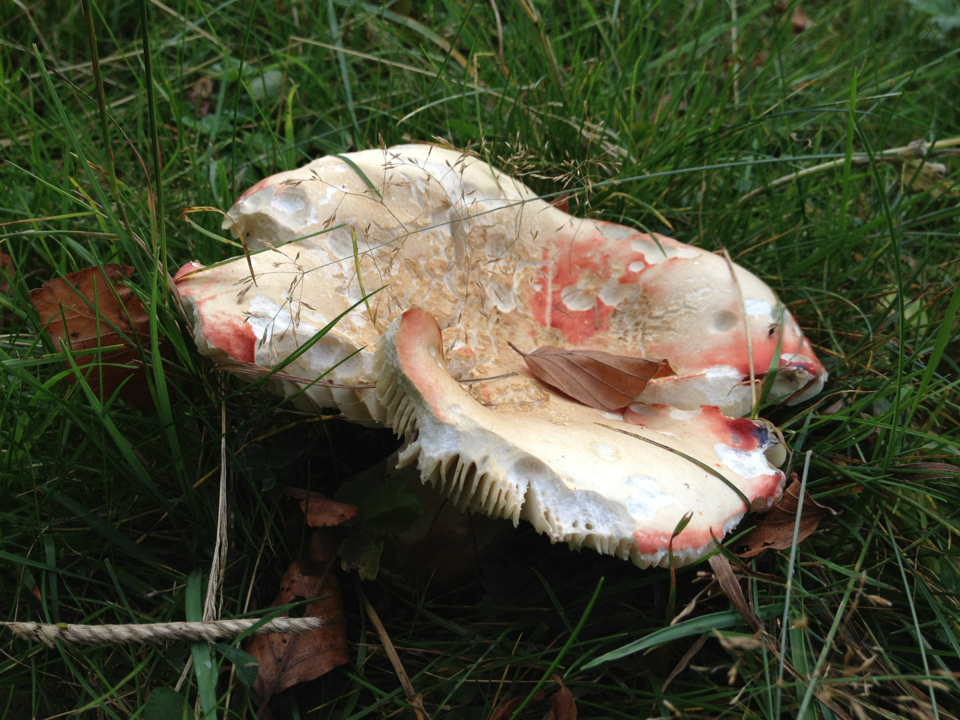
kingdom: Fungi
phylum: Basidiomycota
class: Agaricomycetes
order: Russulales
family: Russulaceae
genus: Russula
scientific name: Russula rosea
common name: Rosy brittlegill
